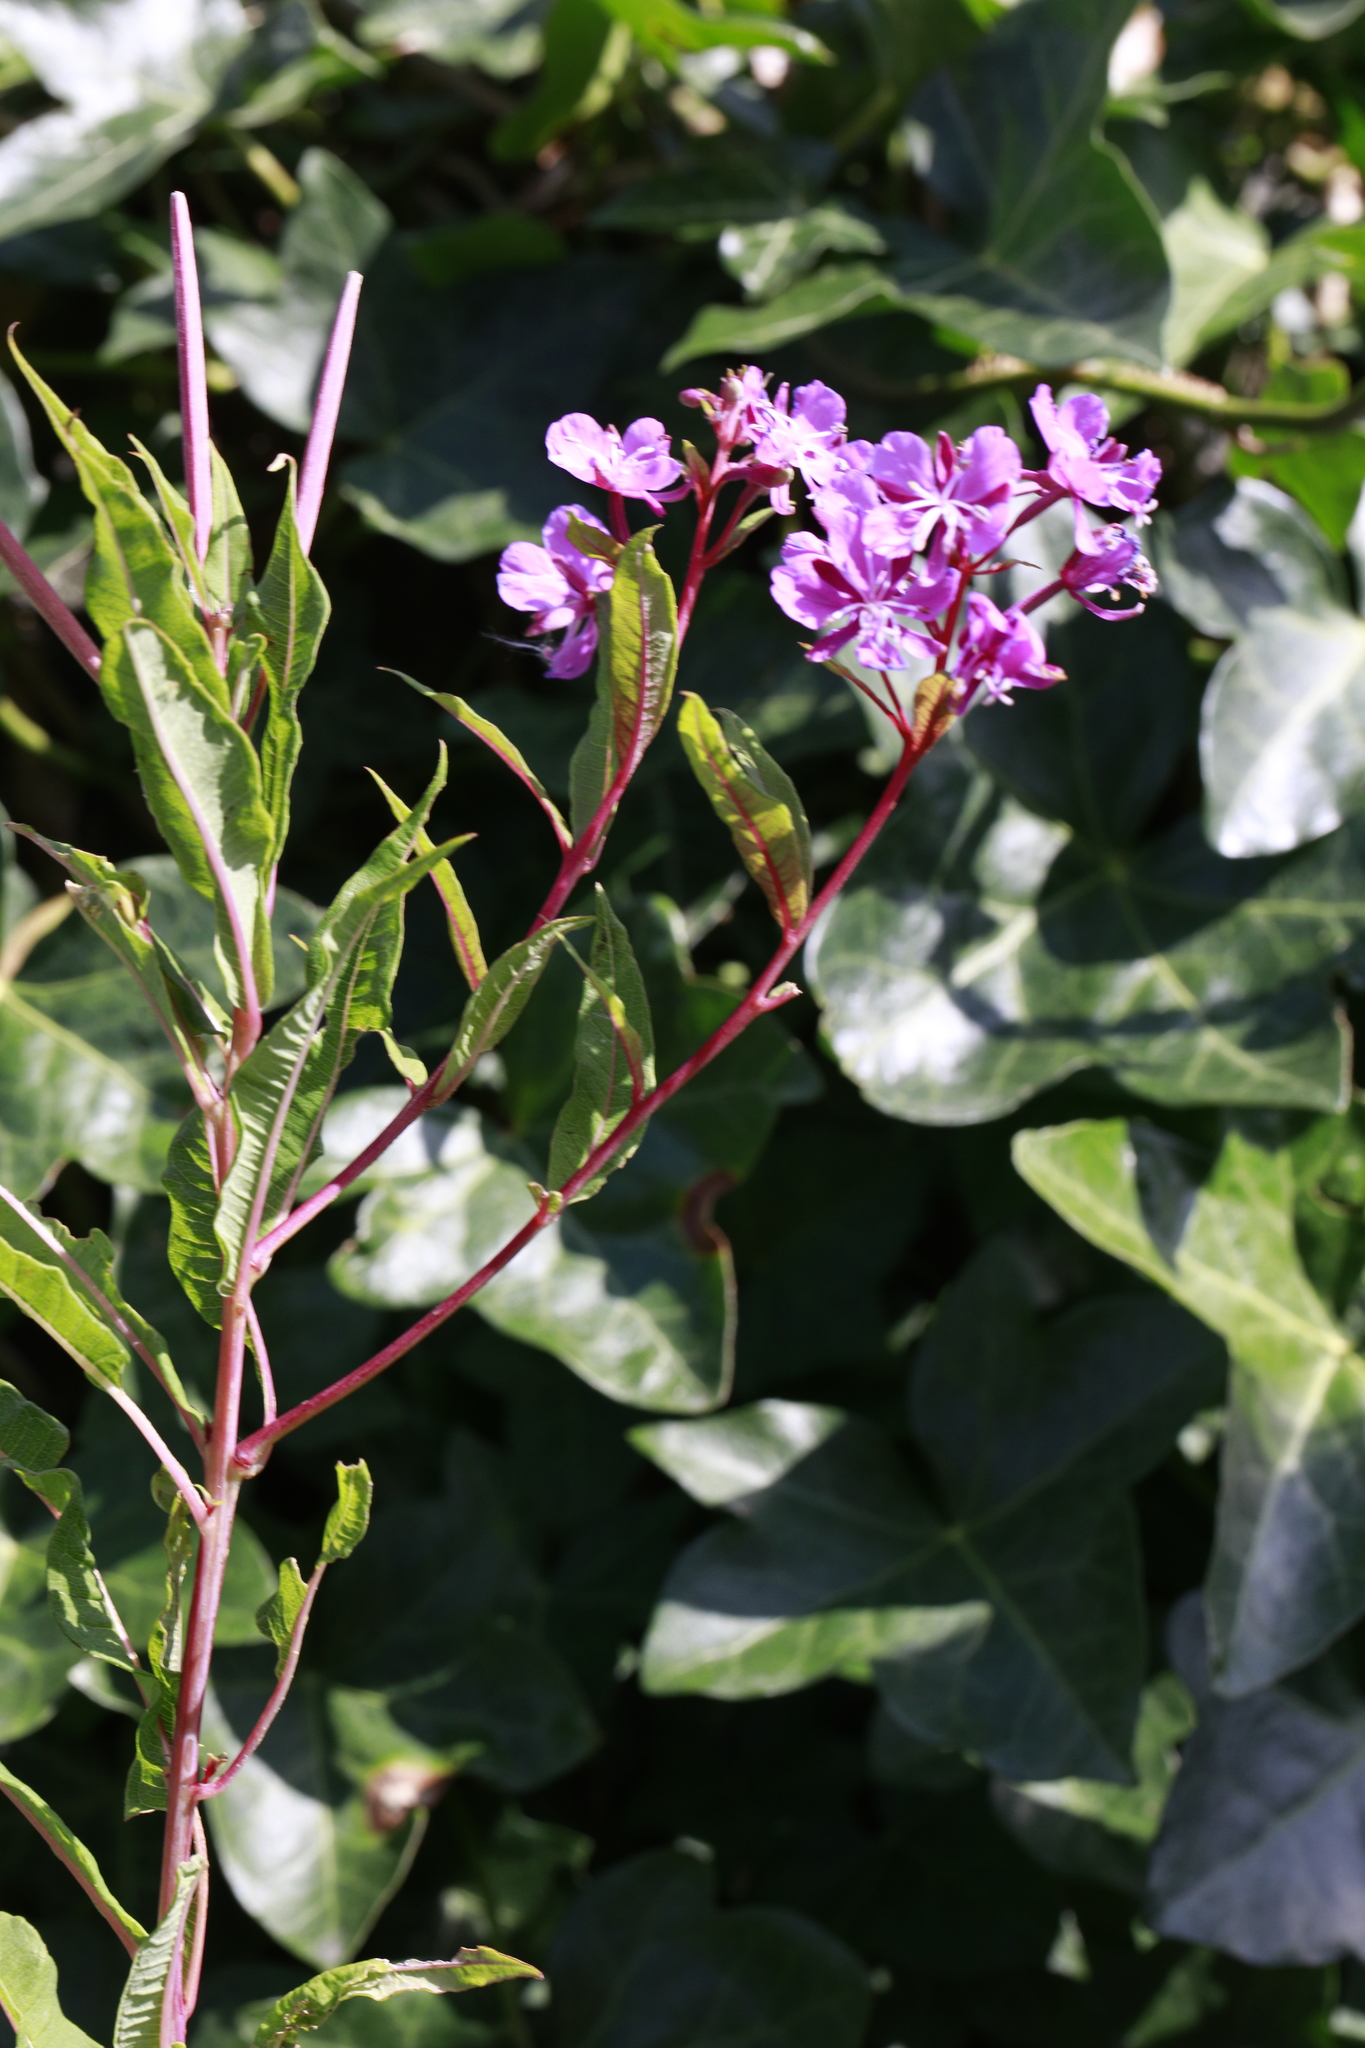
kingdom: Plantae
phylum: Tracheophyta
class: Magnoliopsida
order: Myrtales
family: Onagraceae
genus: Chamaenerion
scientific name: Chamaenerion angustifolium
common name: Fireweed
